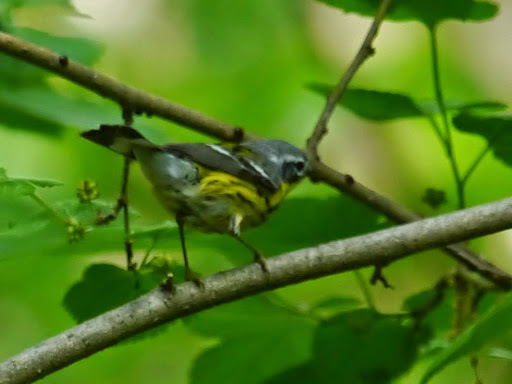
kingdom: Animalia
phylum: Chordata
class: Aves
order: Passeriformes
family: Parulidae
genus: Setophaga
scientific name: Setophaga magnolia
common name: Magnolia warbler
